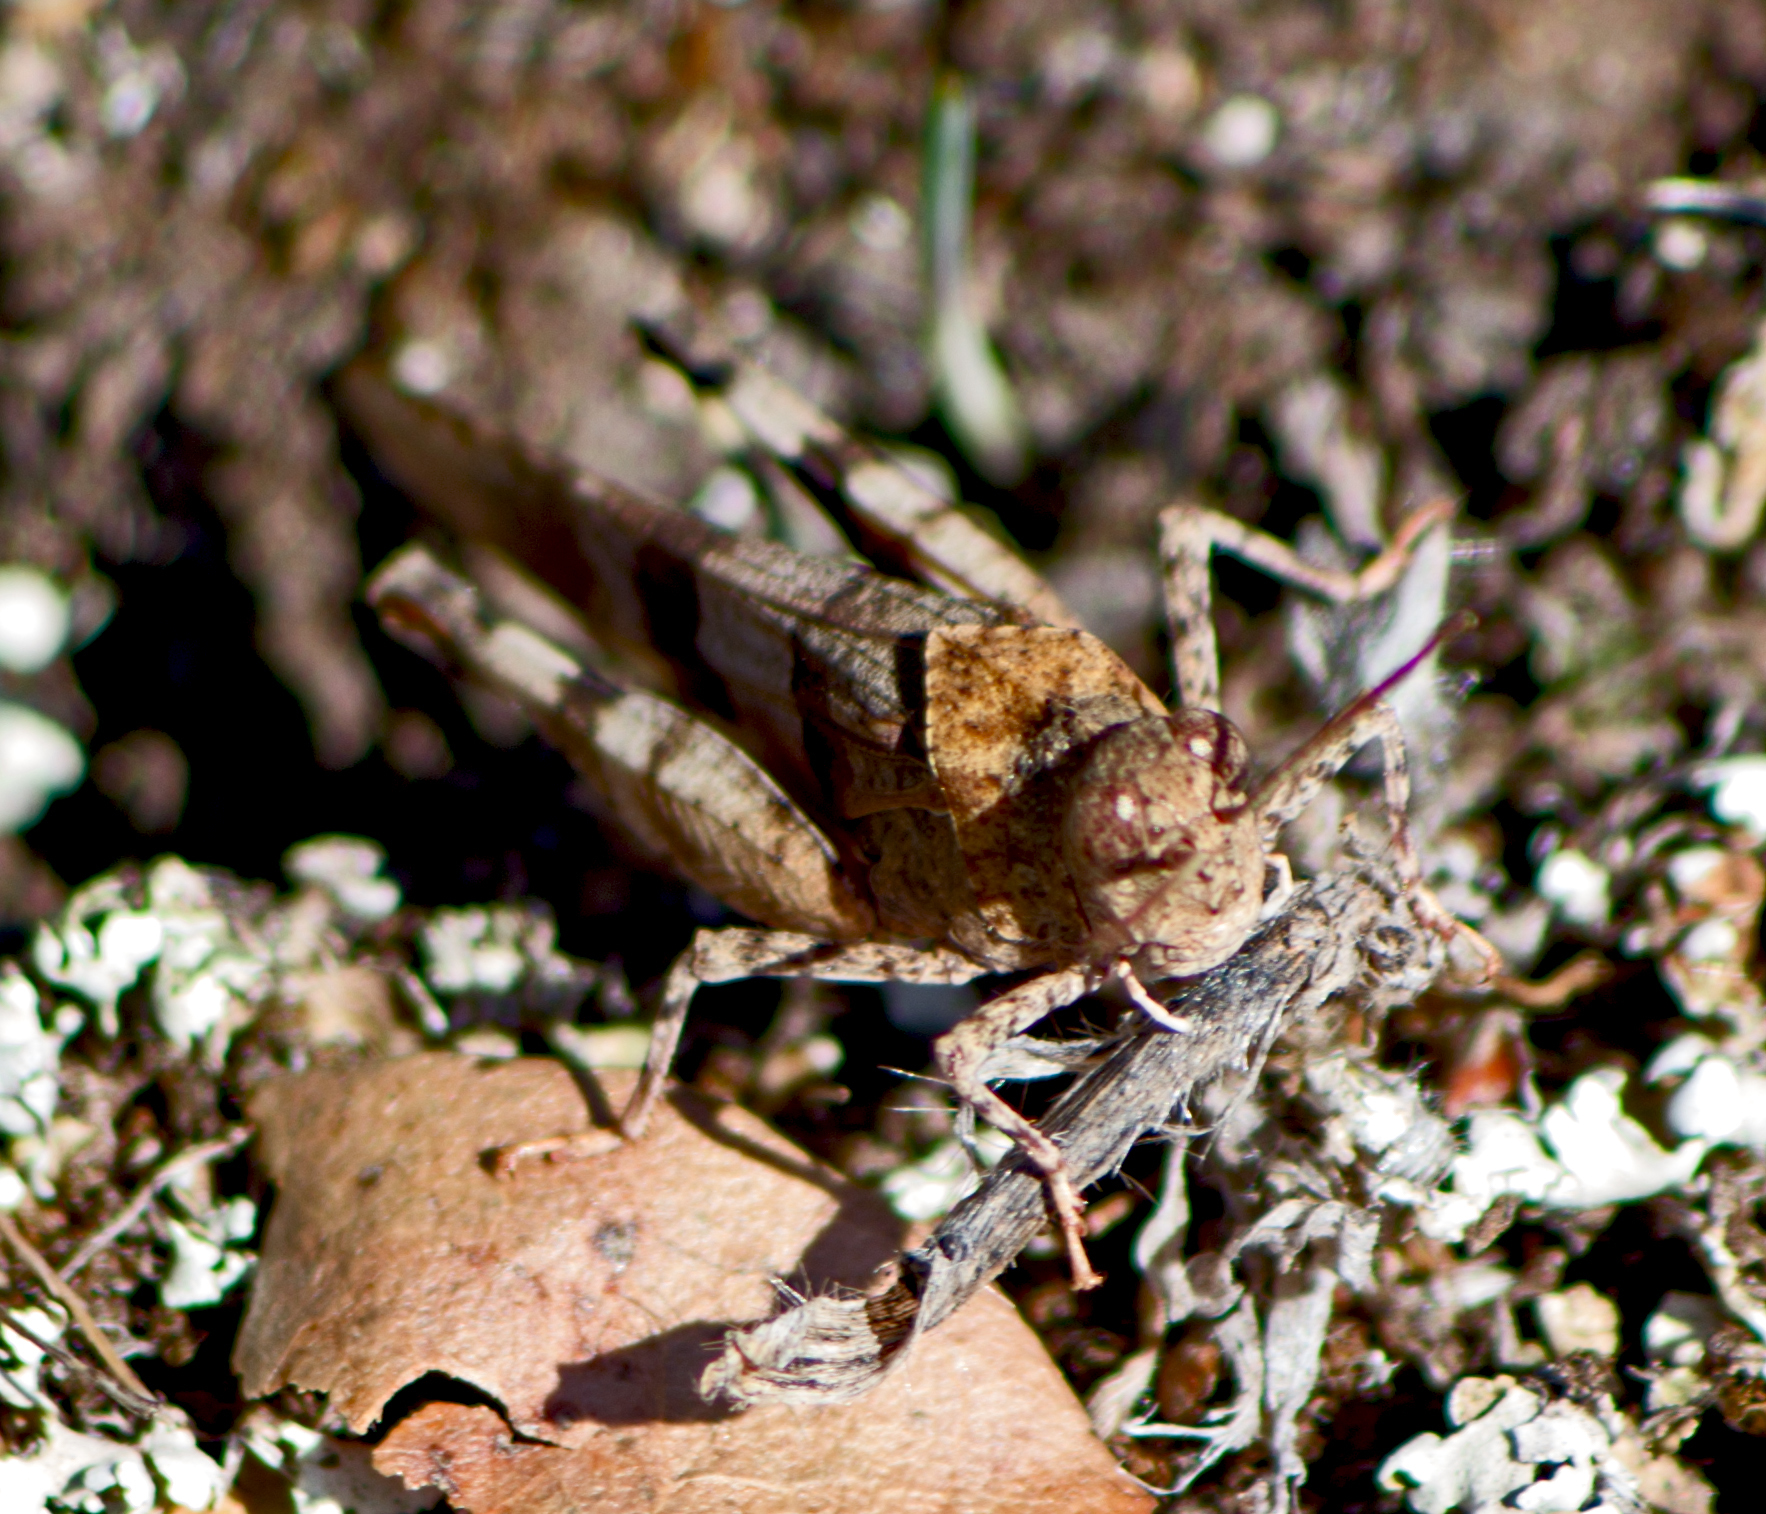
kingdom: Animalia
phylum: Arthropoda
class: Insecta
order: Orthoptera
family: Acrididae
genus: Oedipoda
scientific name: Oedipoda caerulescens
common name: Blue-winged grasshopper
